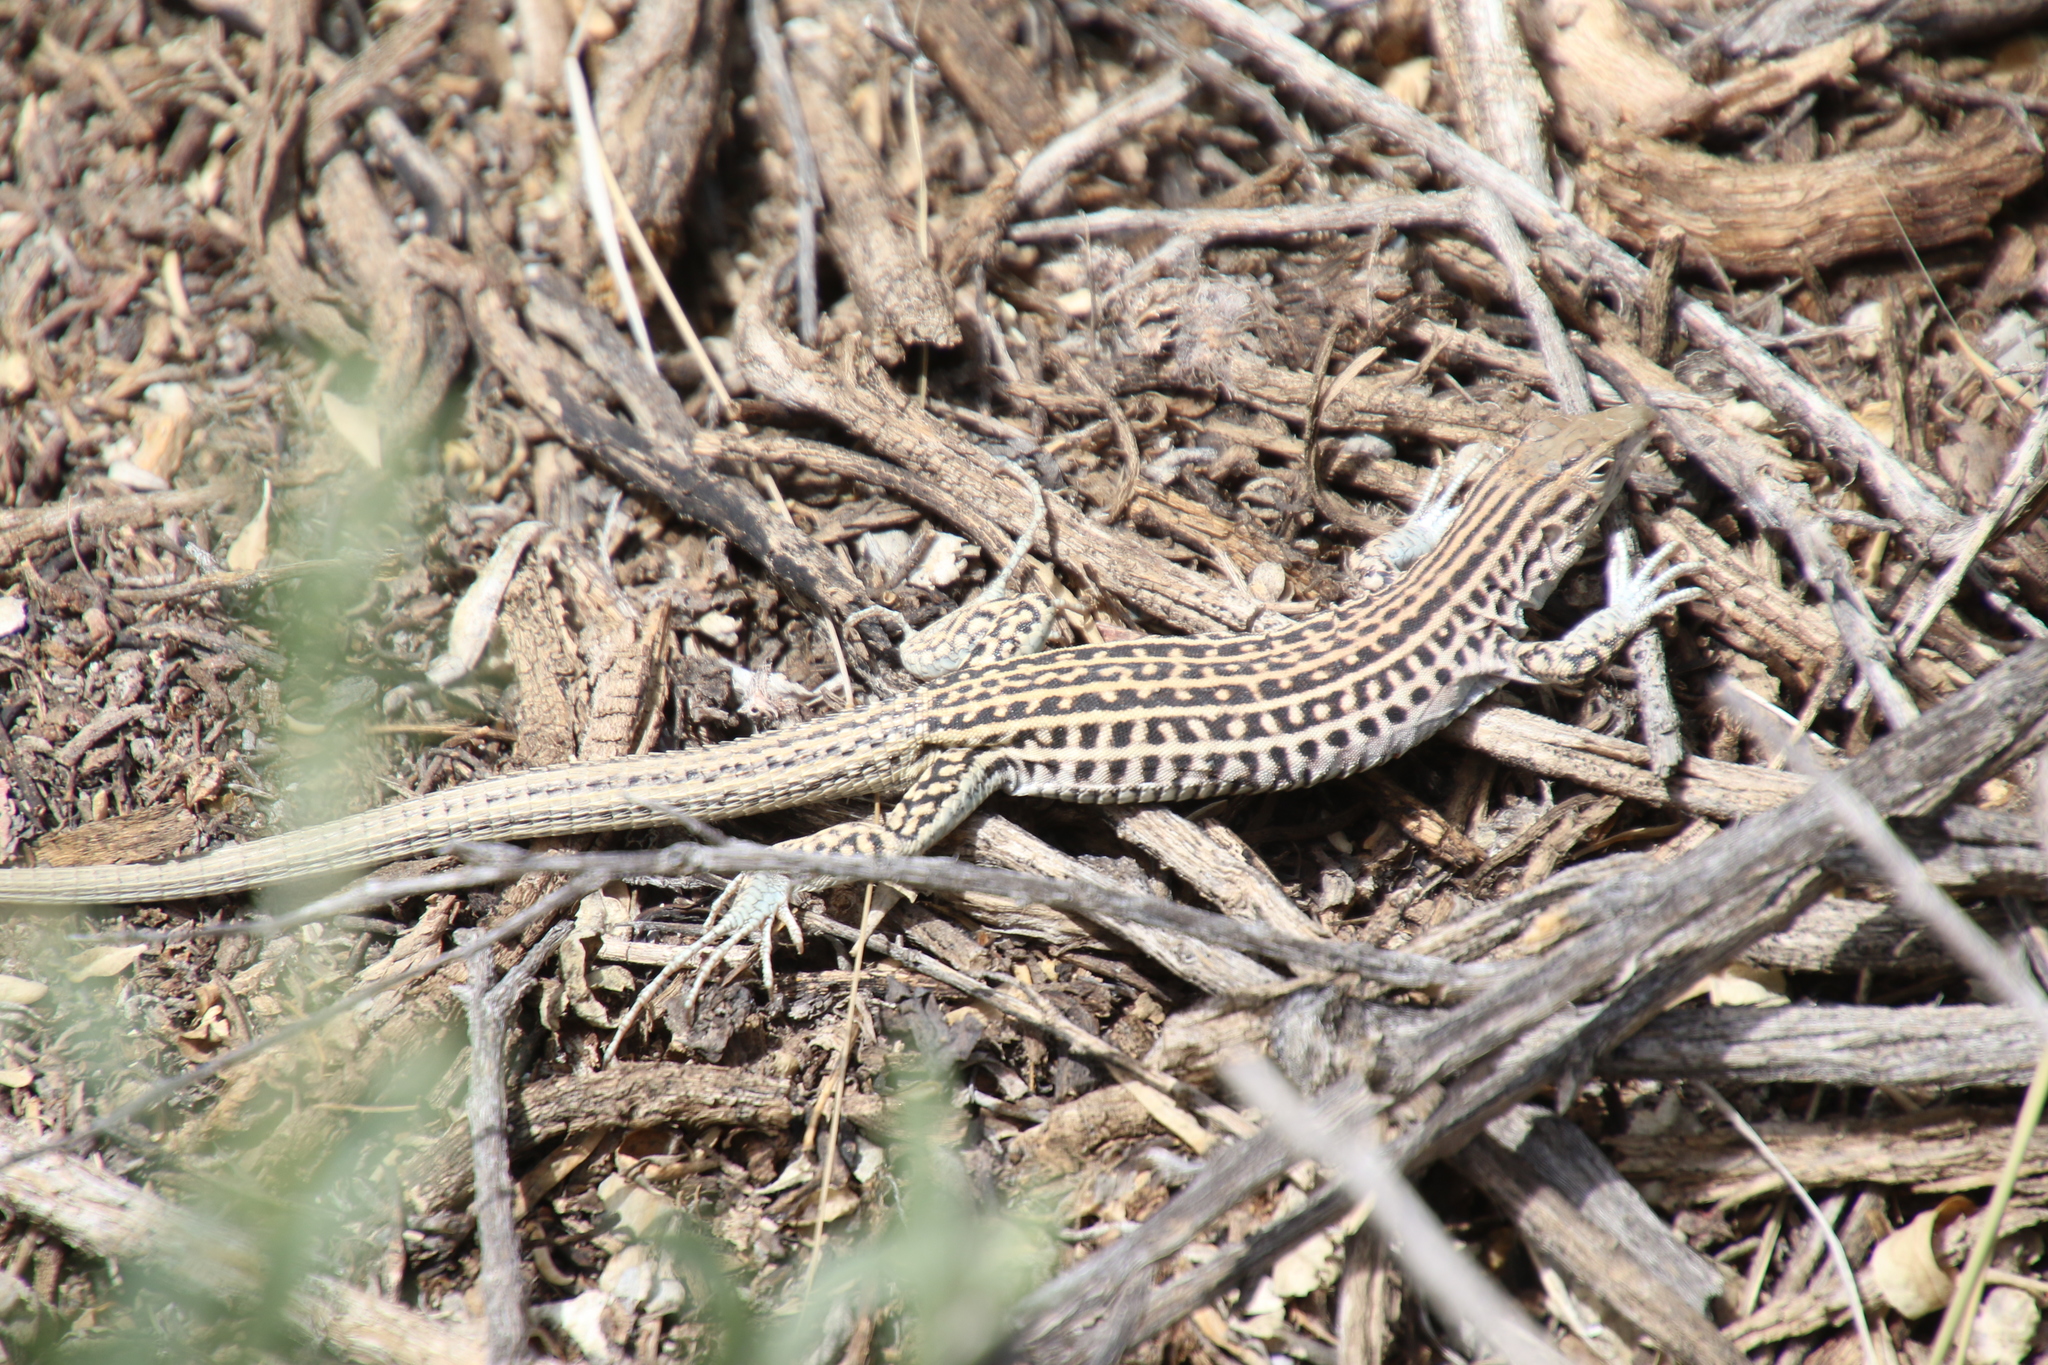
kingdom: Animalia
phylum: Chordata
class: Squamata
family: Teiidae
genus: Aspidoscelis
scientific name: Aspidoscelis neotesselatus
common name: Colorado checkered whiptail
